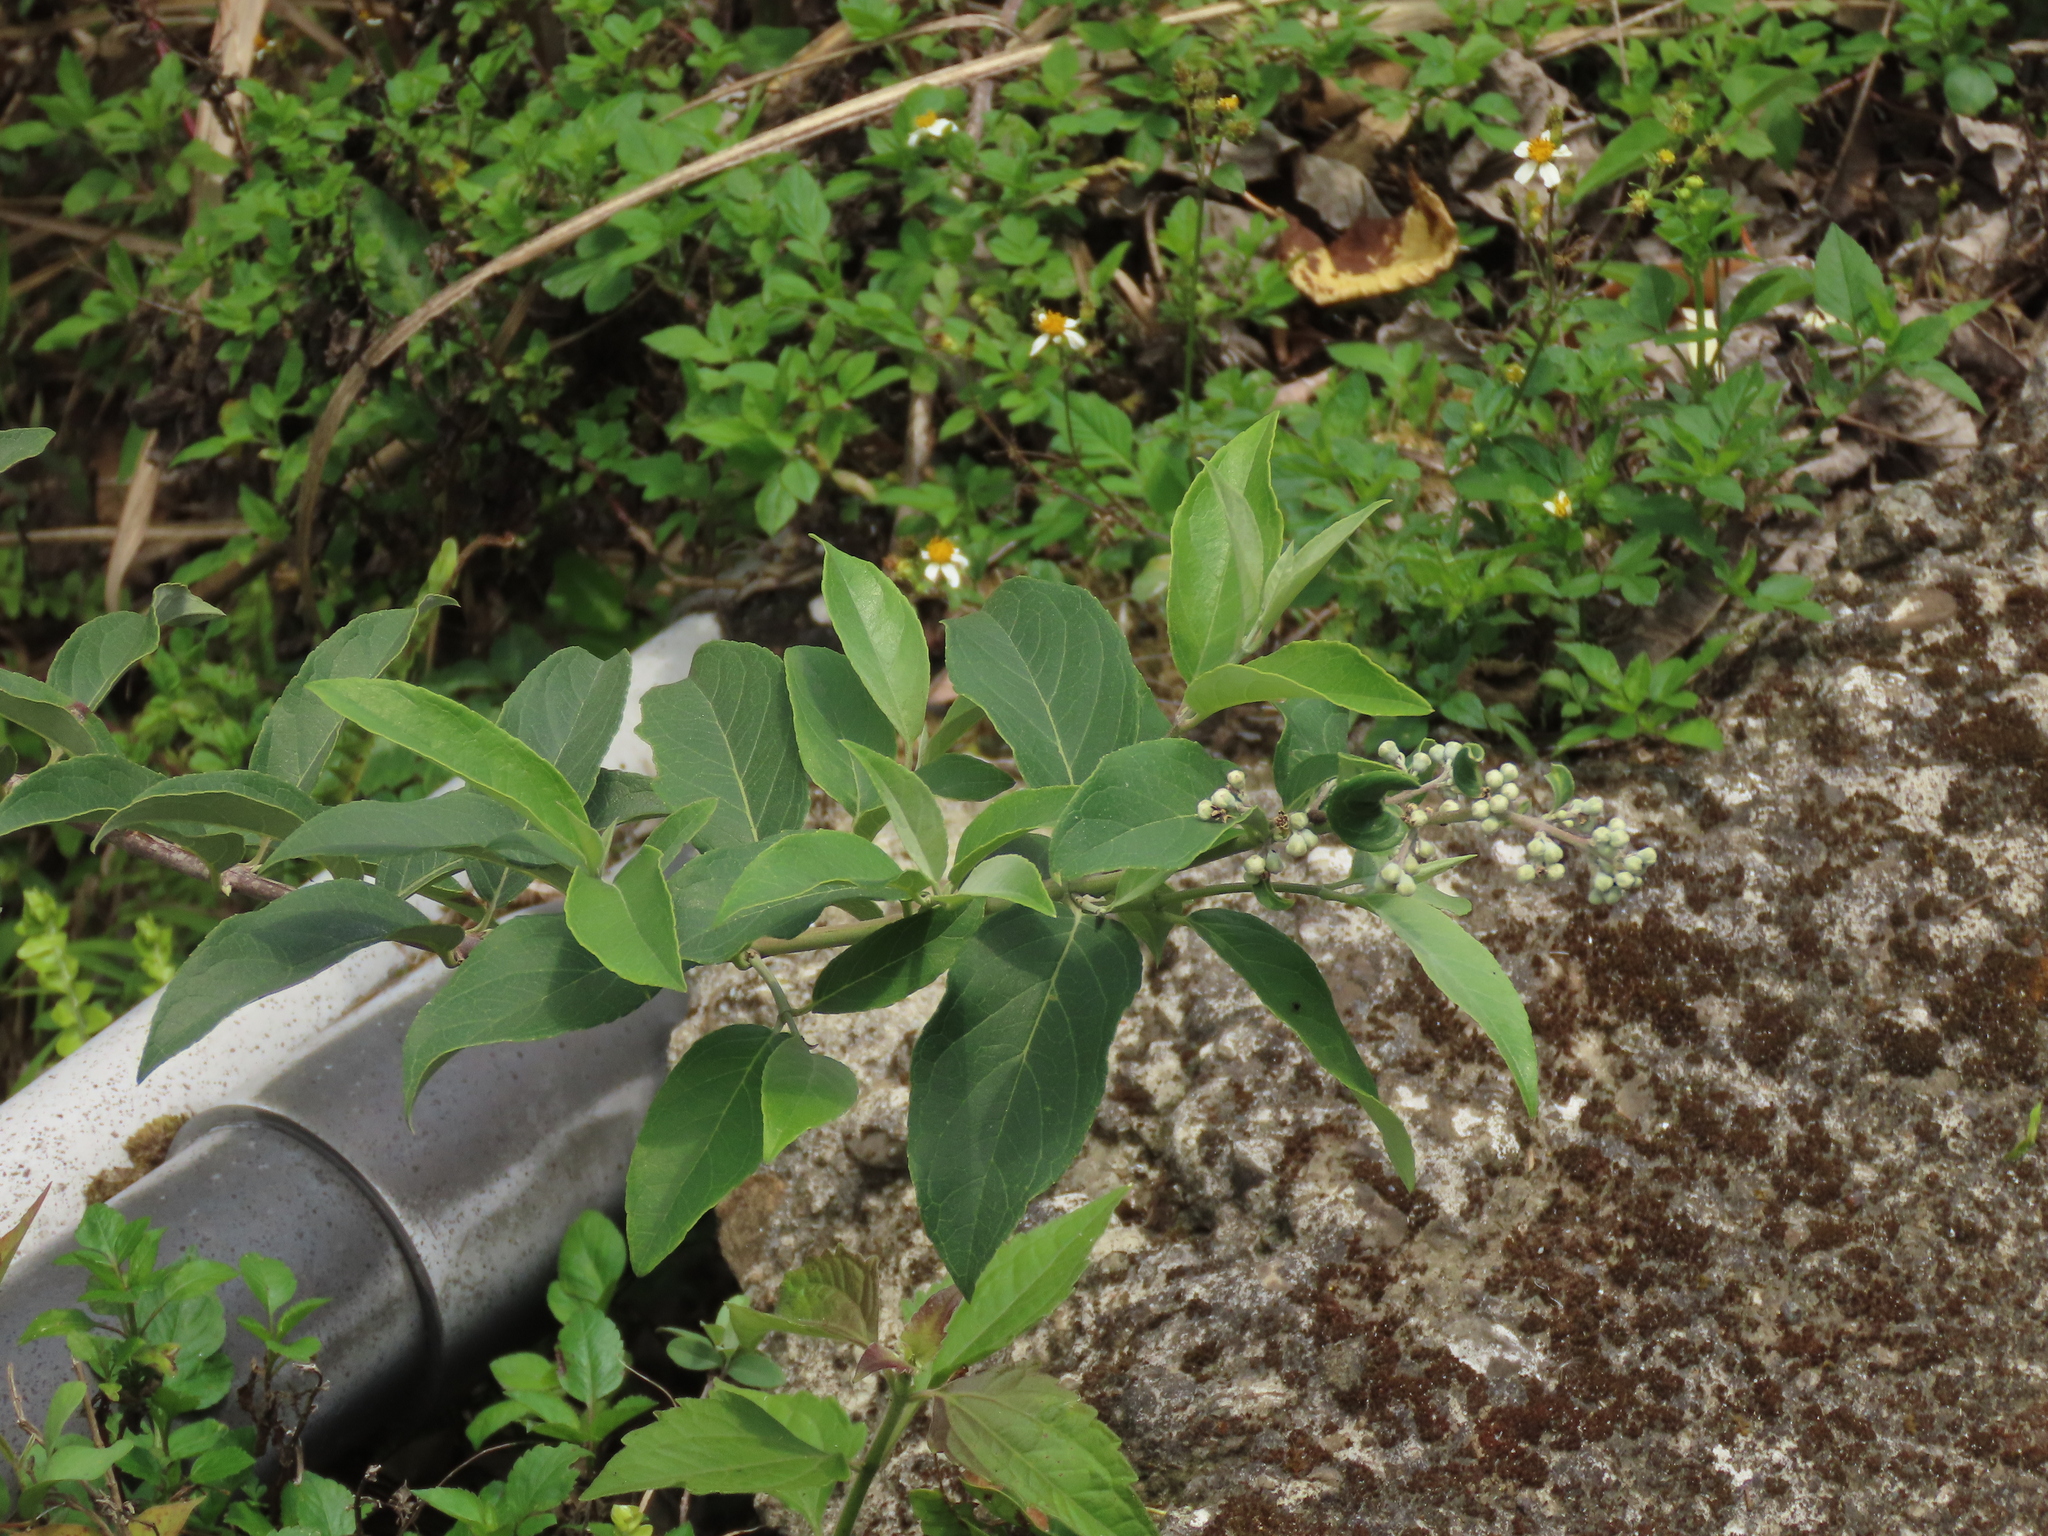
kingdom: Plantae
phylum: Tracheophyta
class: Magnoliopsida
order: Cornales
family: Hydrangeaceae
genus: Deutzia
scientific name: Deutzia pulchra
